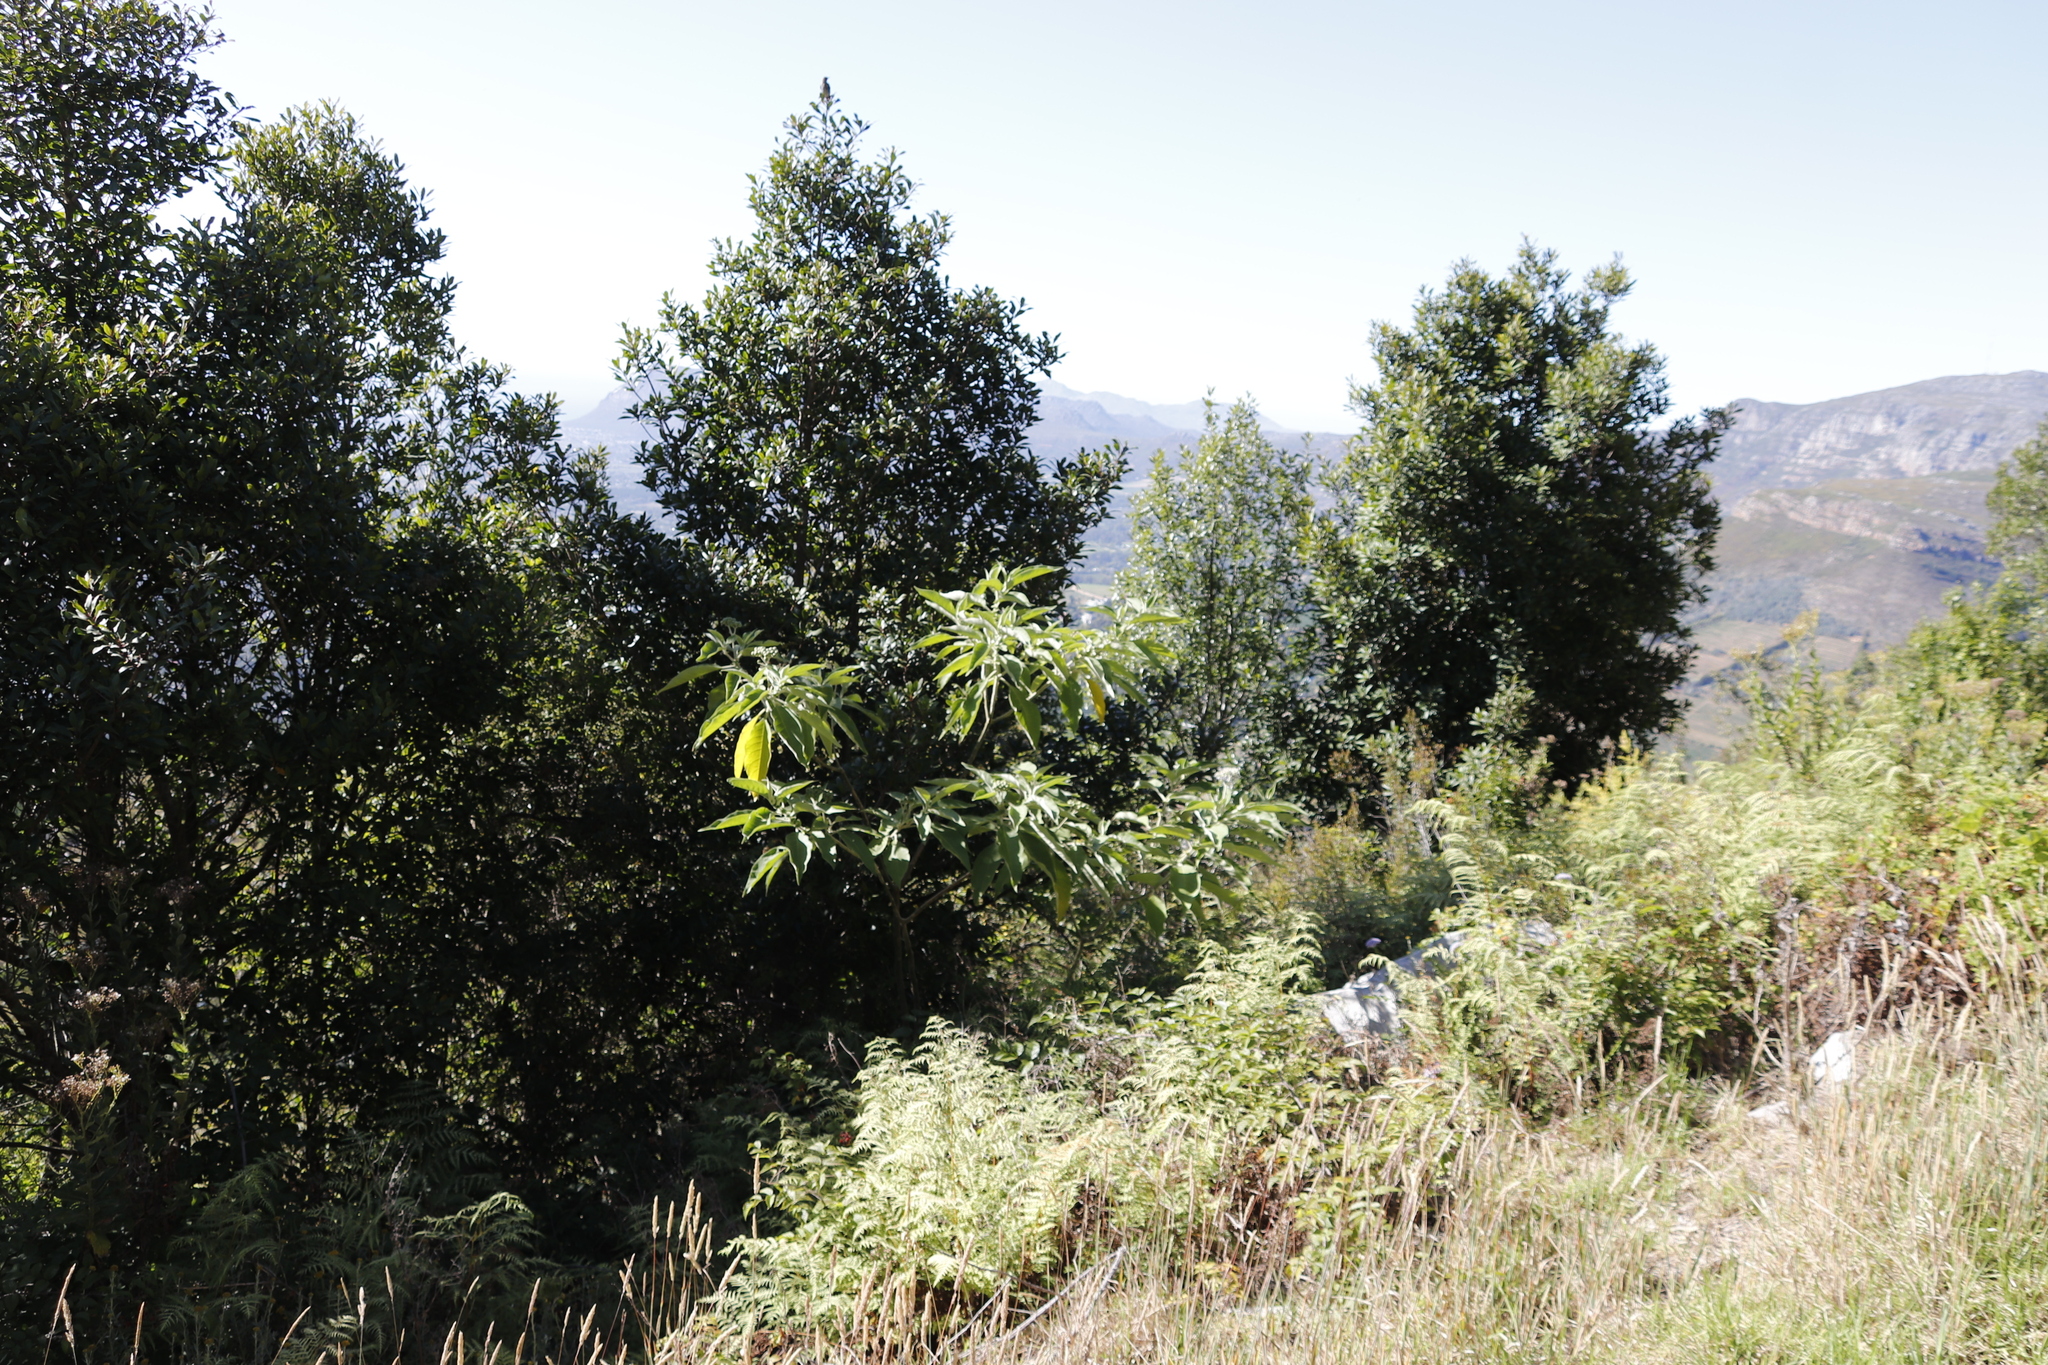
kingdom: Plantae
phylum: Tracheophyta
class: Magnoliopsida
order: Solanales
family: Solanaceae
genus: Solanum
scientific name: Solanum mauritianum
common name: Earleaf nightshade
